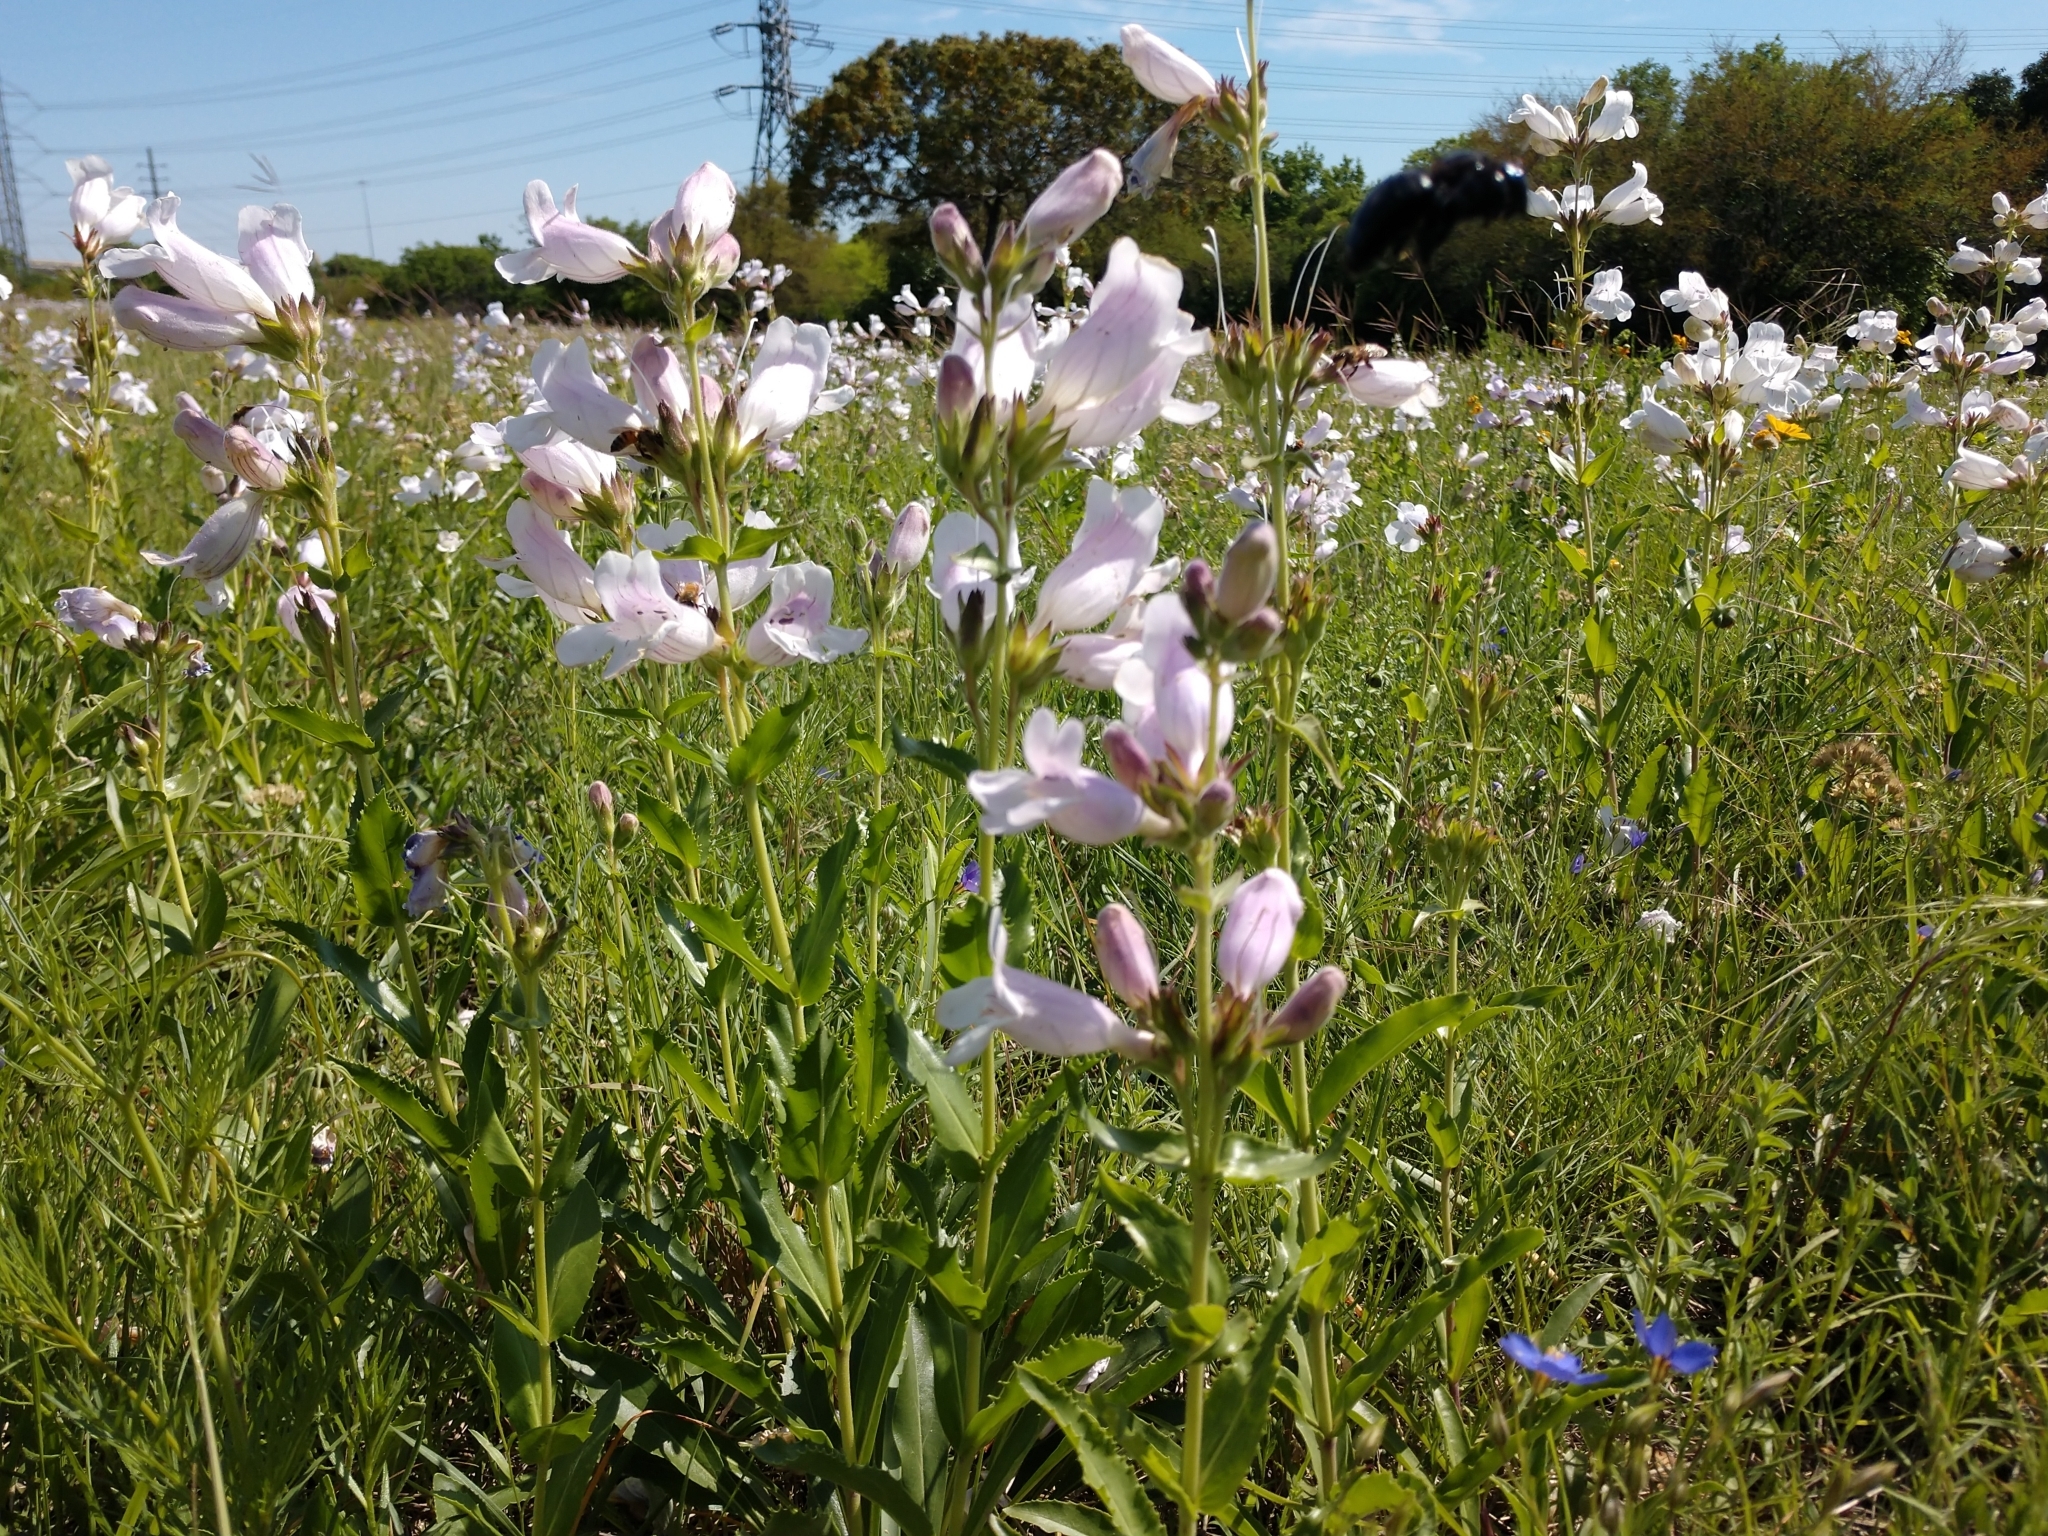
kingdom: Plantae
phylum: Tracheophyta
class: Magnoliopsida
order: Lamiales
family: Plantaginaceae
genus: Penstemon
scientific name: Penstemon cobaea
